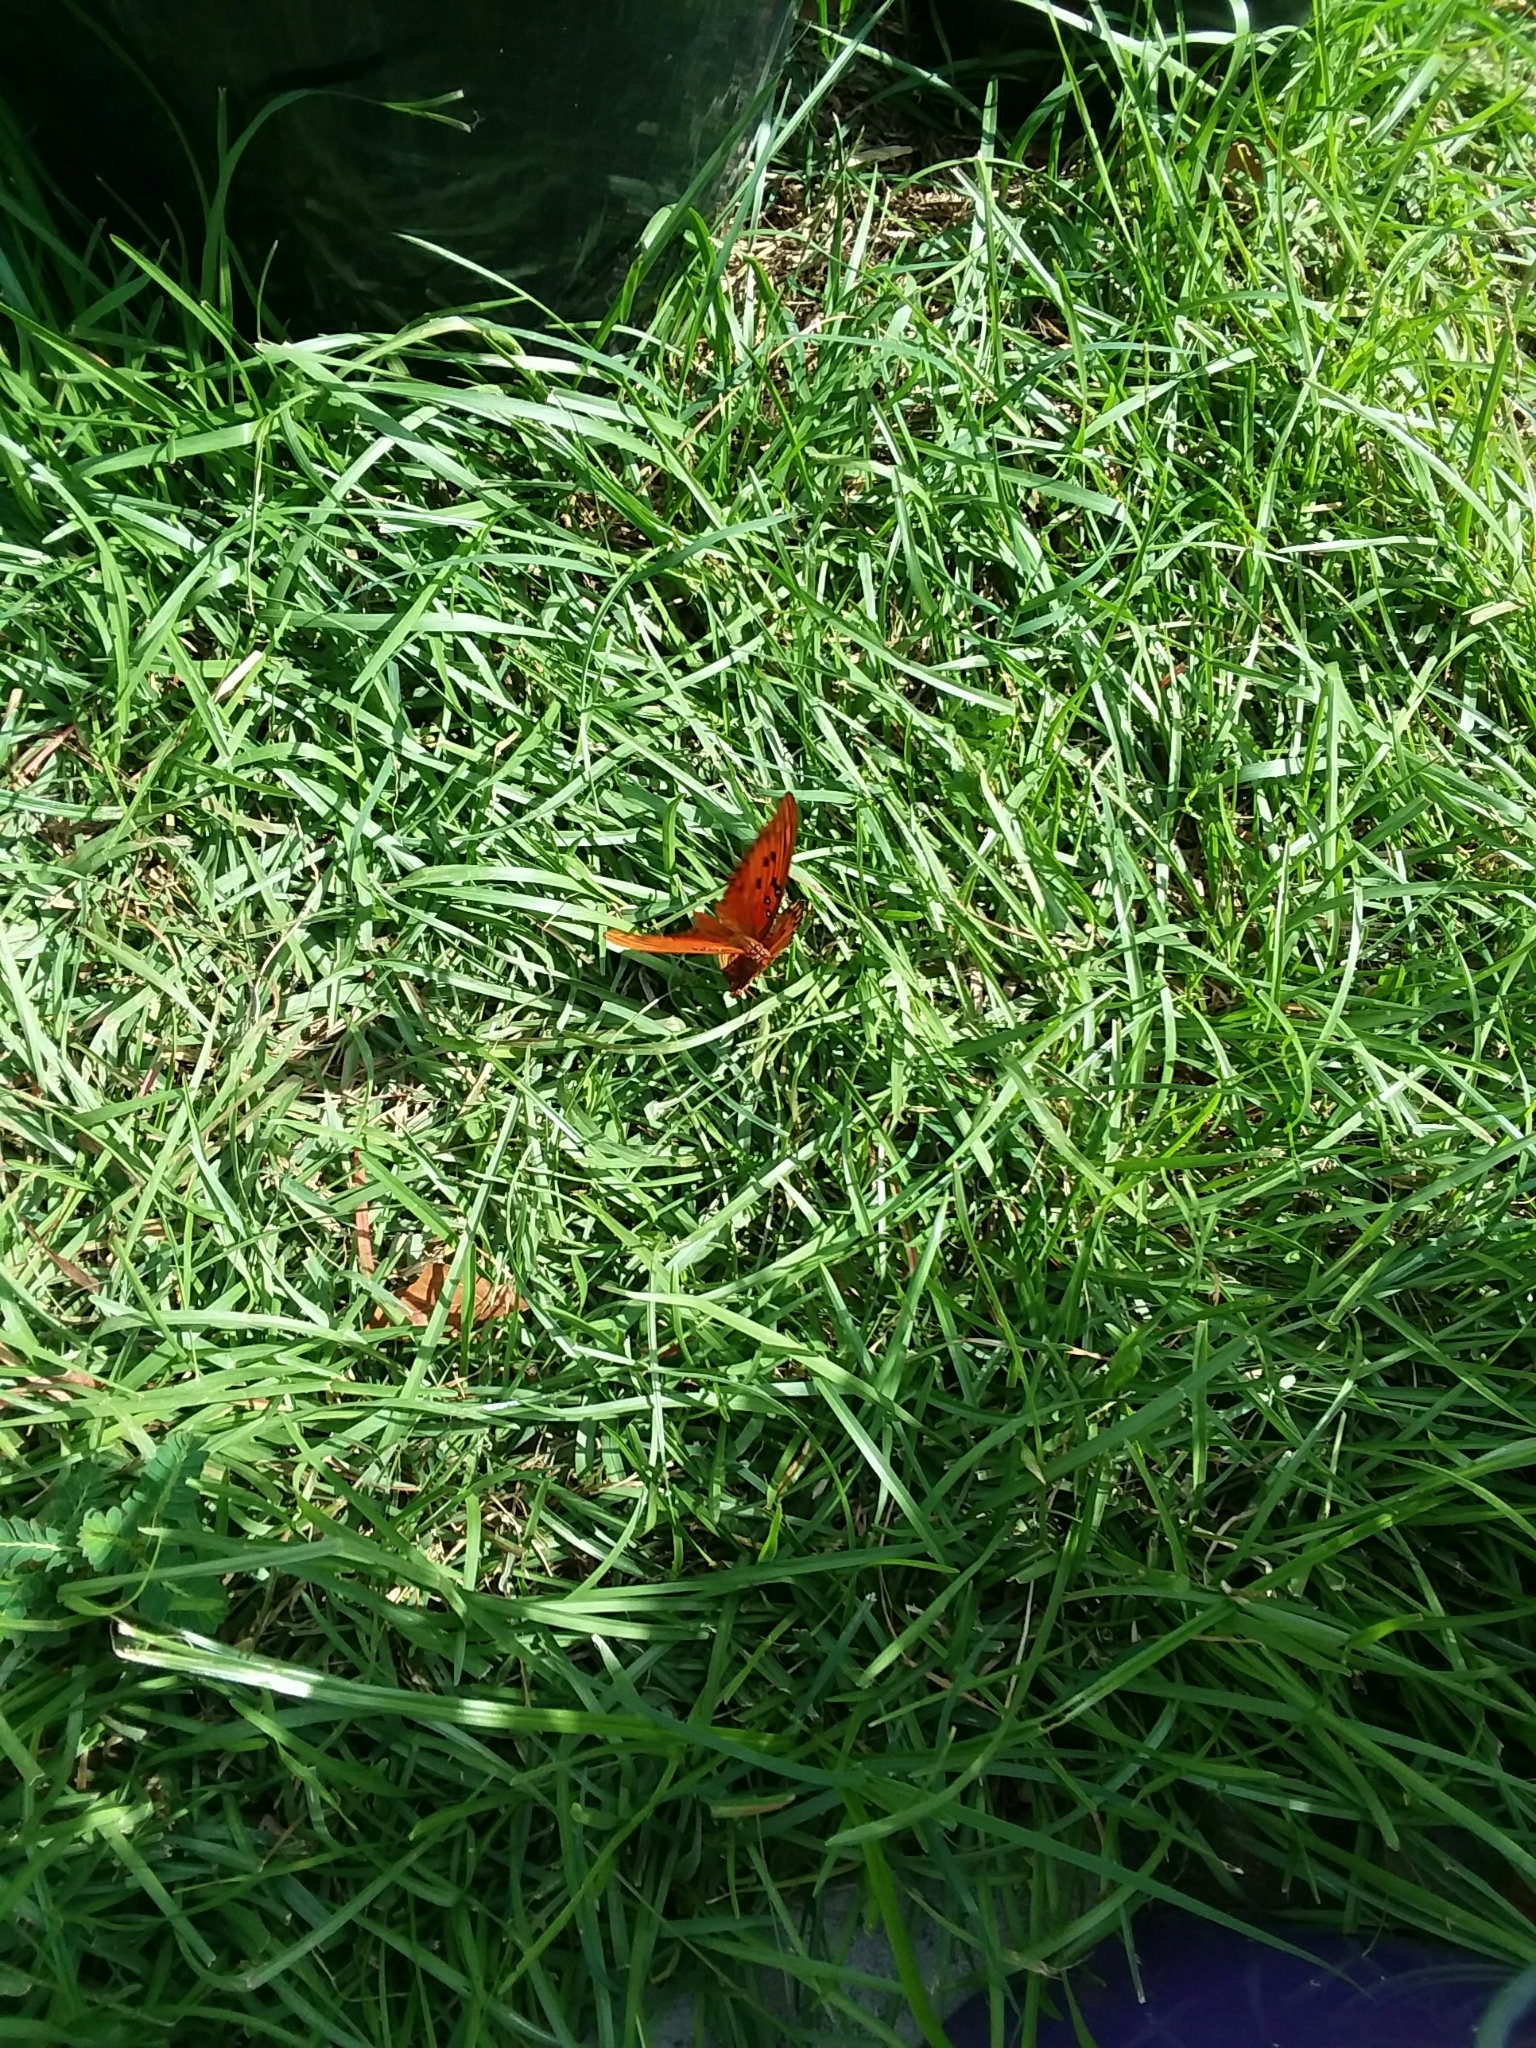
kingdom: Animalia
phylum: Arthropoda
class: Insecta
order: Lepidoptera
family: Nymphalidae
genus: Dione
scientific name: Dione vanillae
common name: Gulf fritillary
